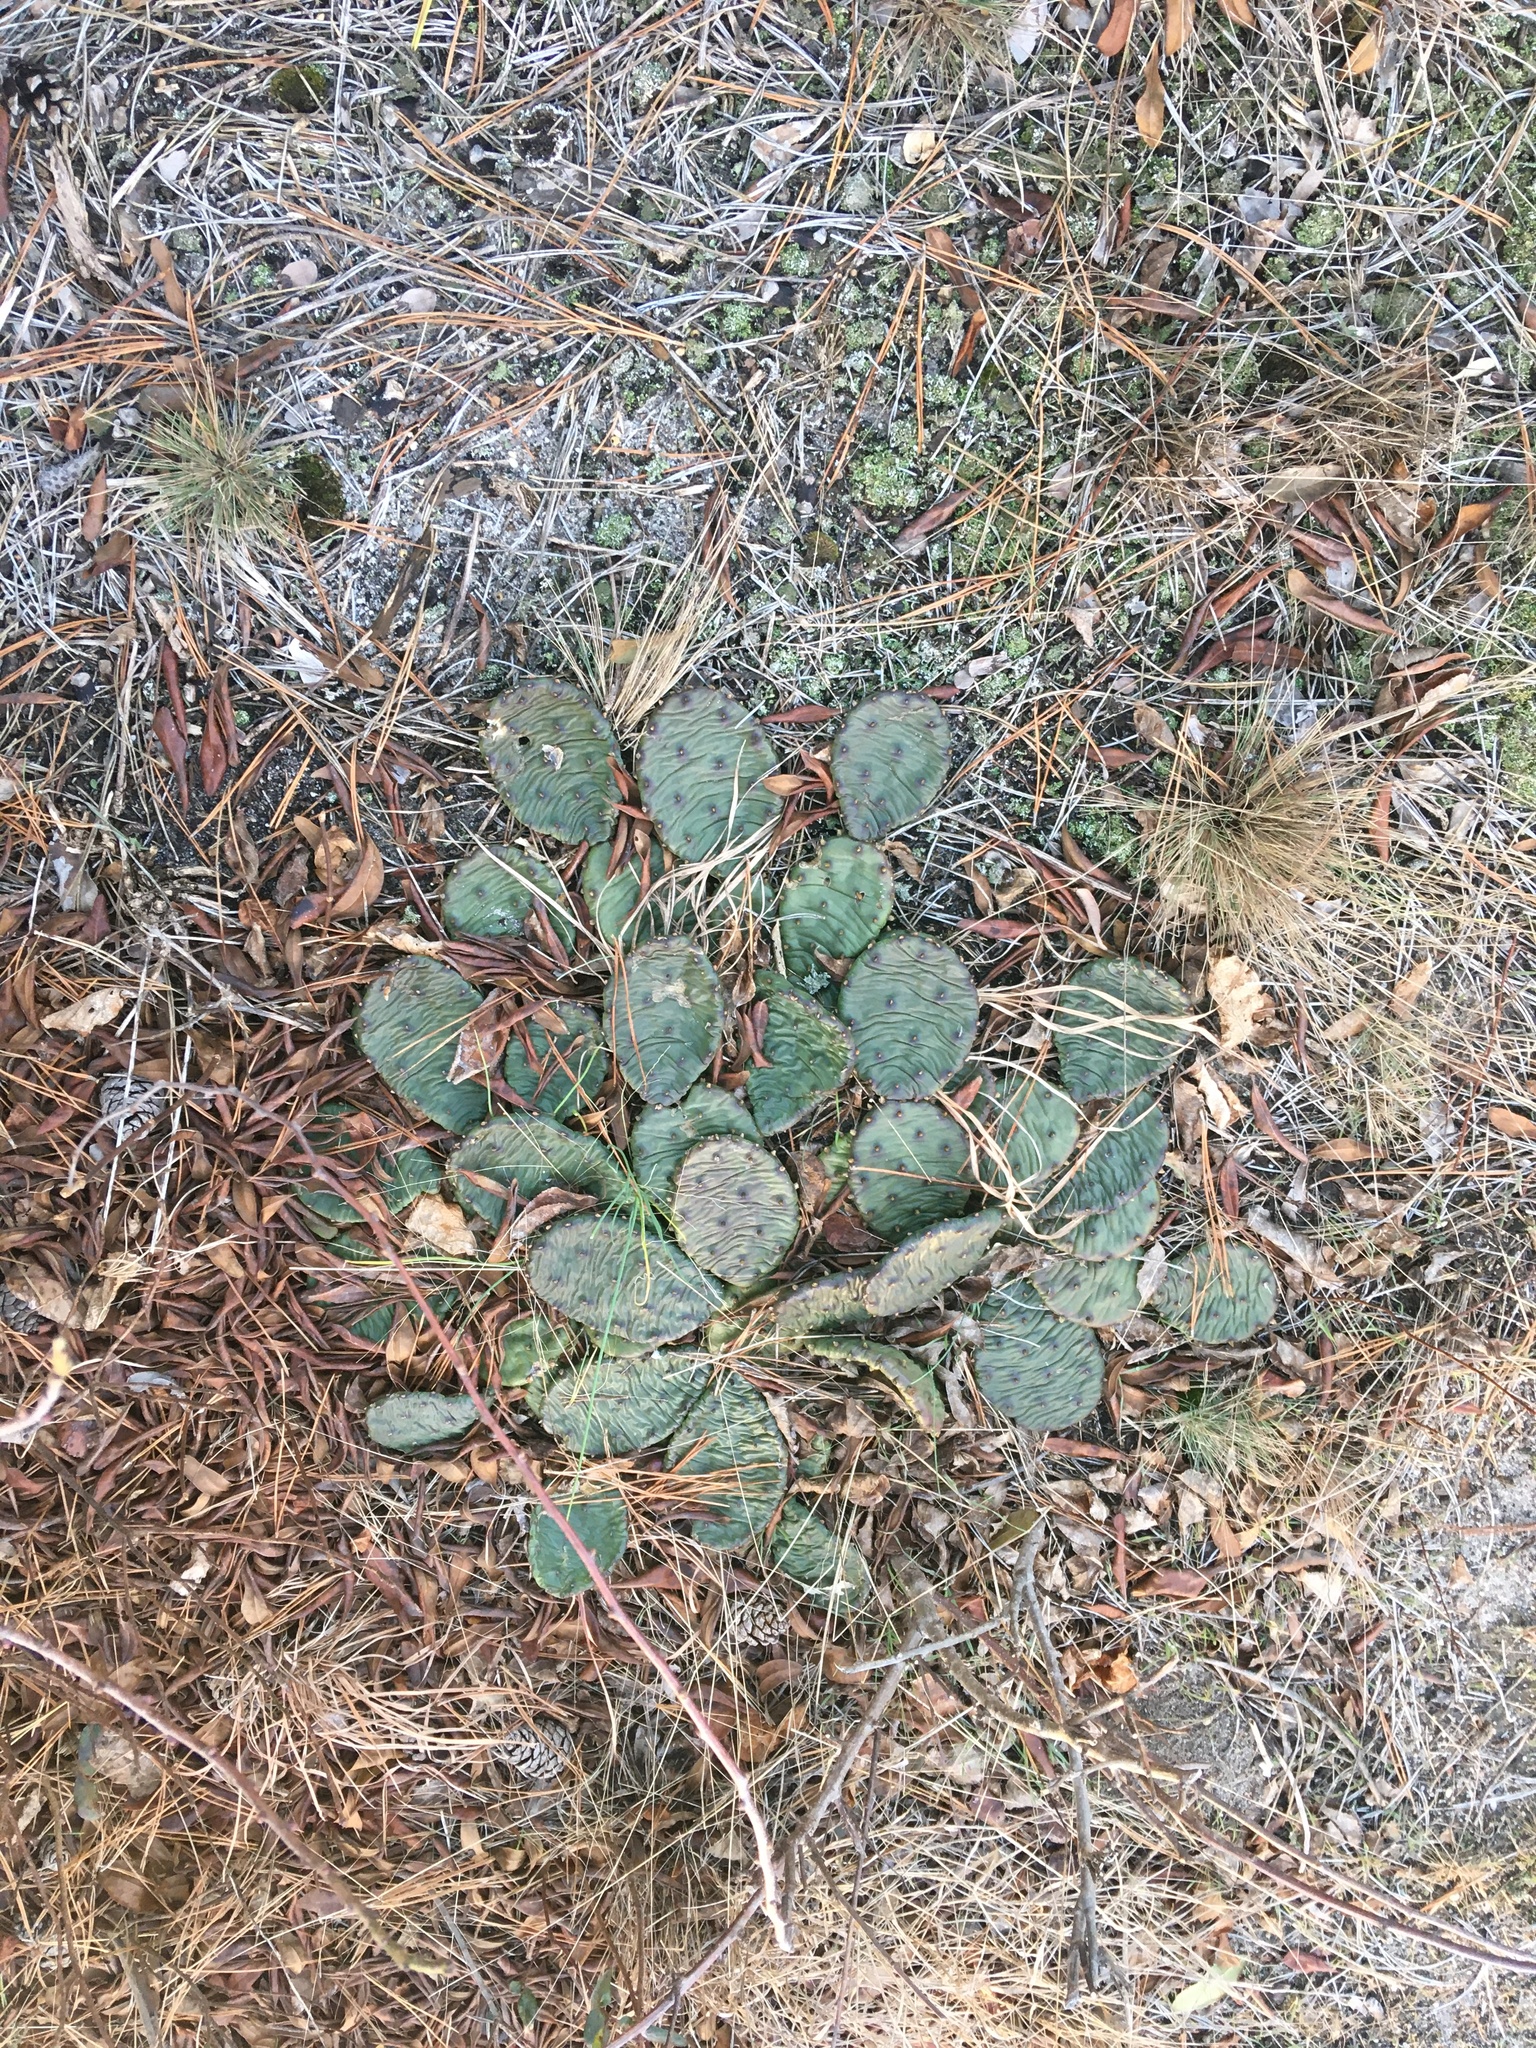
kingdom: Plantae
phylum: Tracheophyta
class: Magnoliopsida
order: Caryophyllales
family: Cactaceae
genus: Opuntia
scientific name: Opuntia humifusa
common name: Eastern prickly-pear
